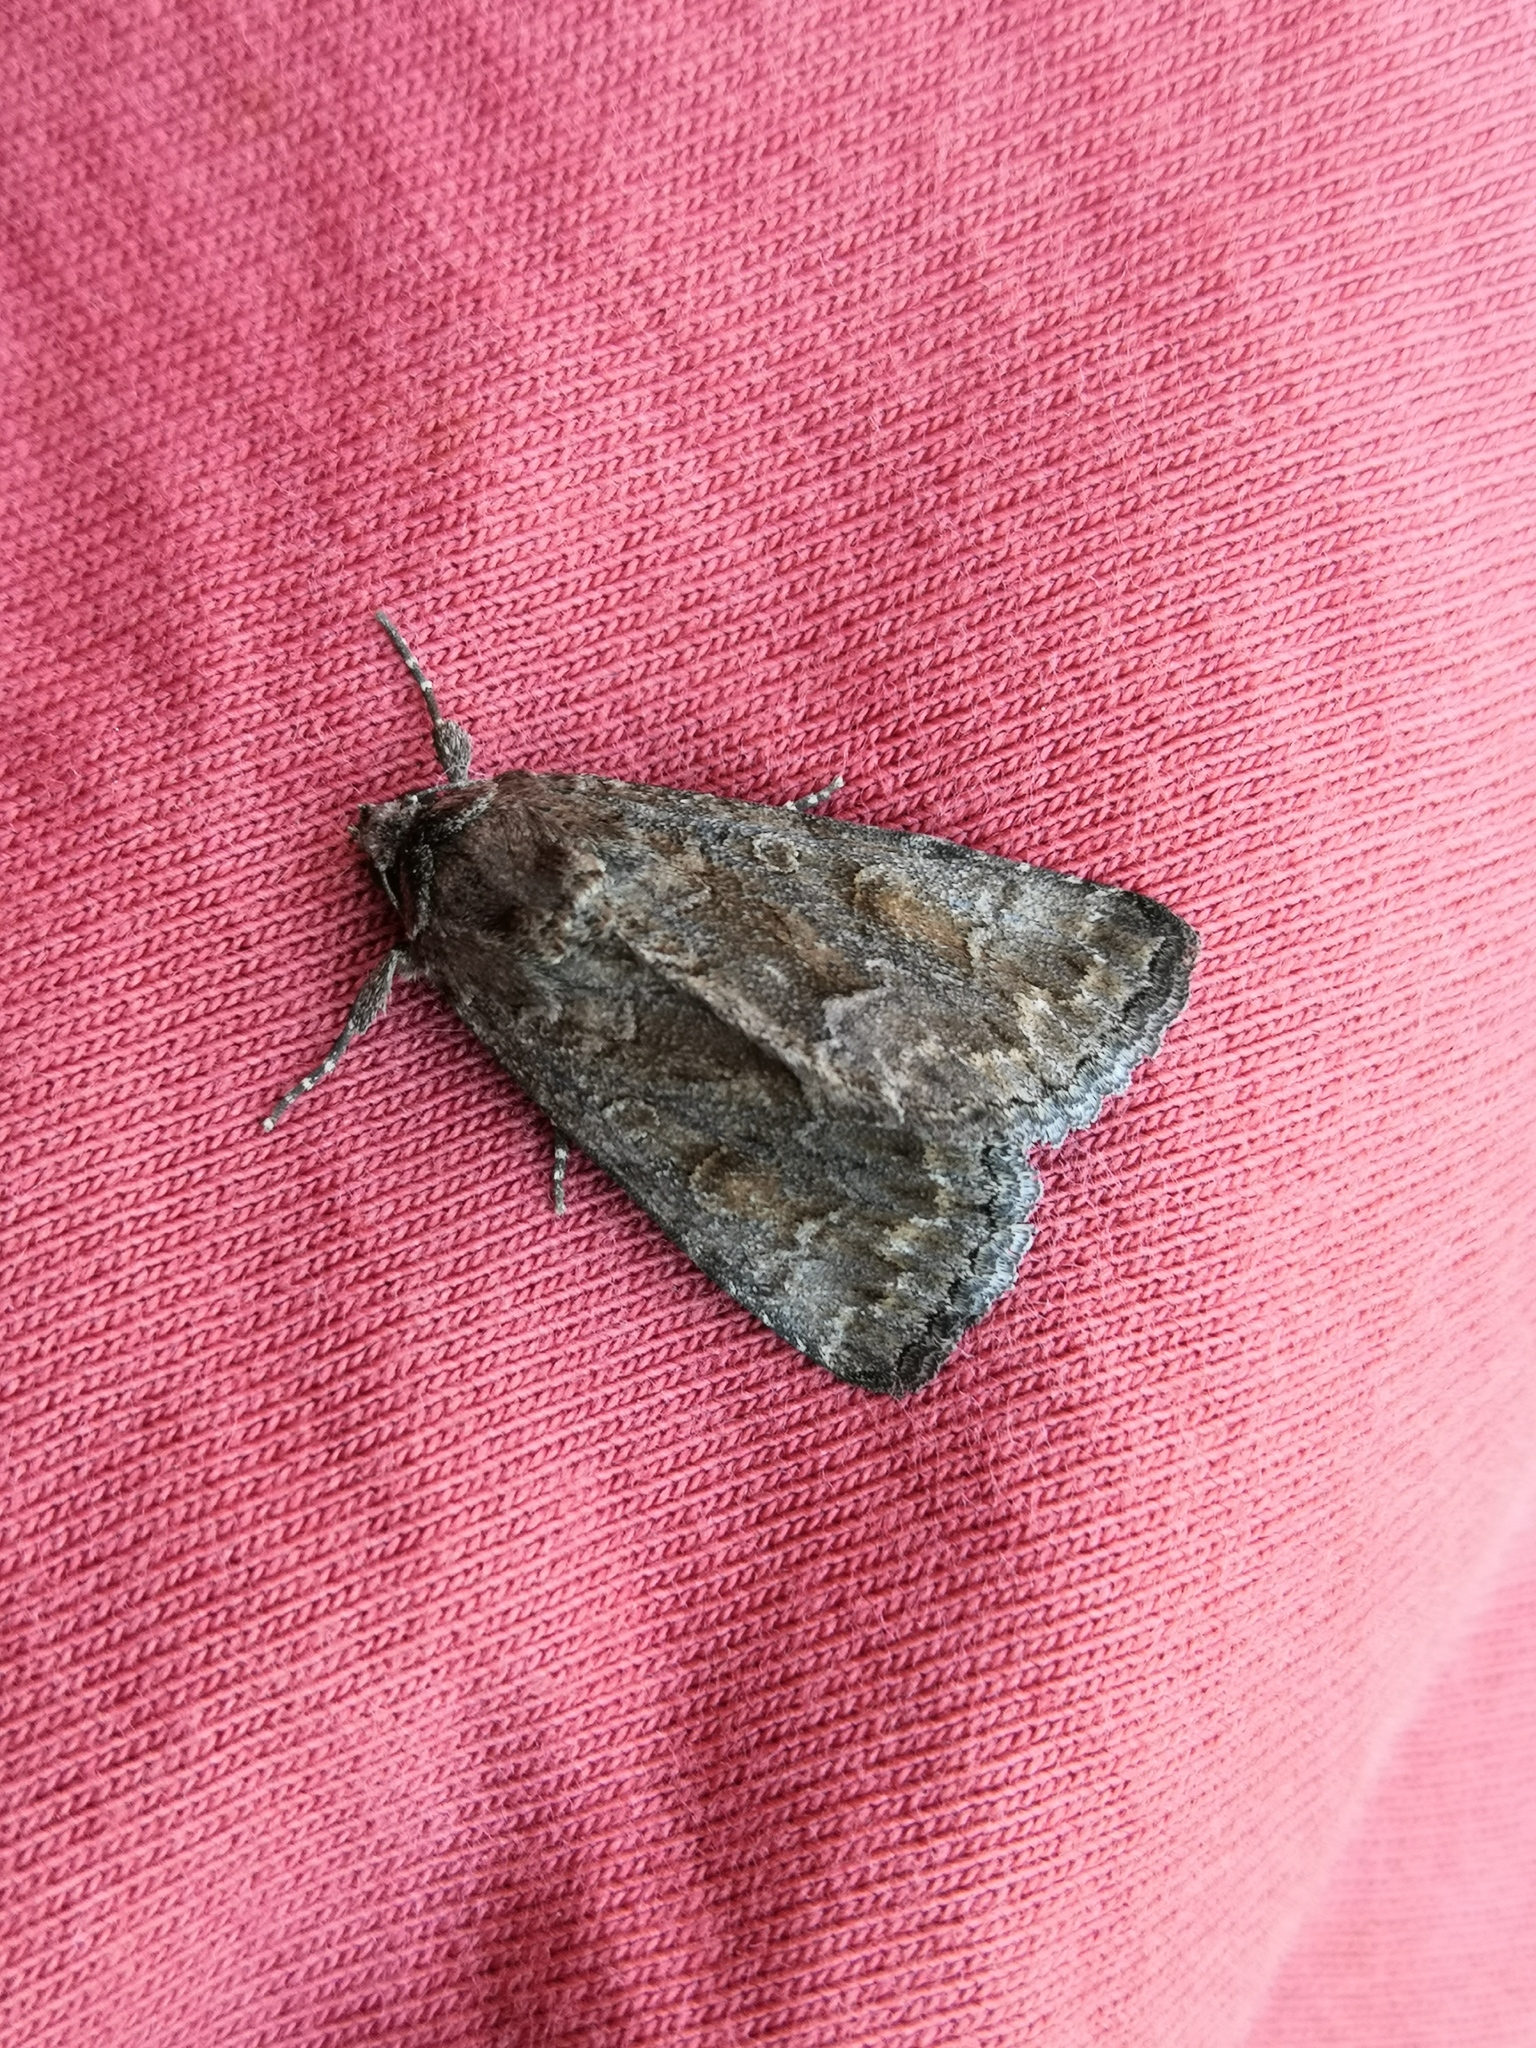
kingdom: Animalia
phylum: Arthropoda
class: Insecta
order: Lepidoptera
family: Noctuidae
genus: Thalpophila
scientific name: Thalpophila matura
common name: Straw underwing
